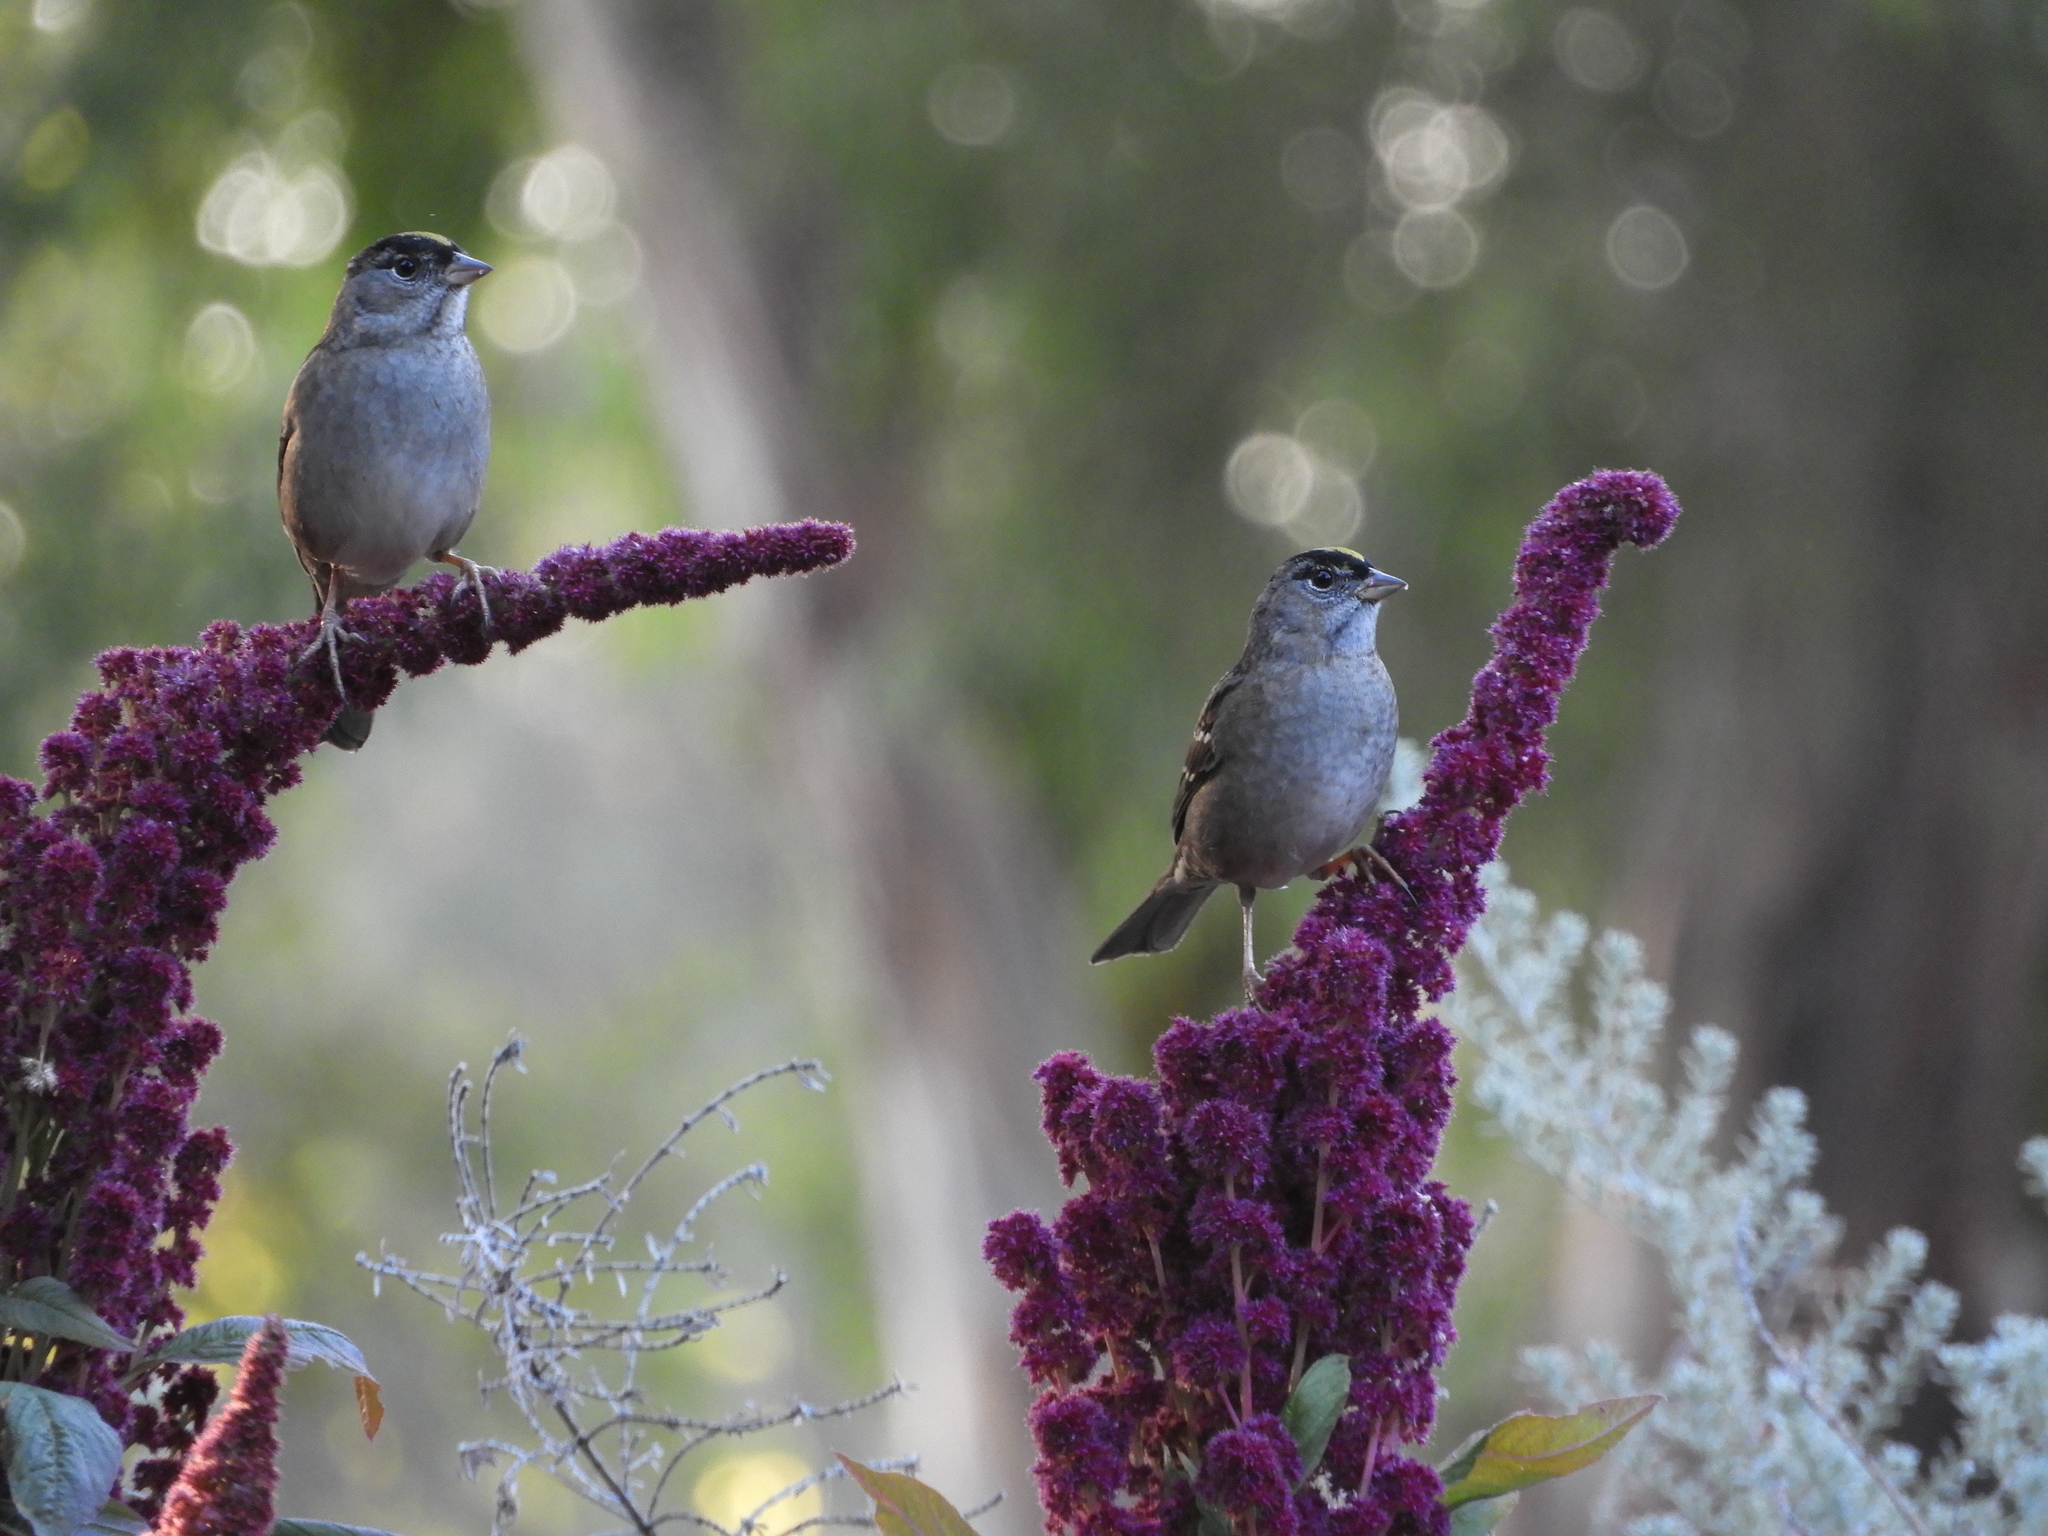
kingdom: Animalia
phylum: Chordata
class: Aves
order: Passeriformes
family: Passerellidae
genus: Zonotrichia
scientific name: Zonotrichia atricapilla
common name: Golden-crowned sparrow
